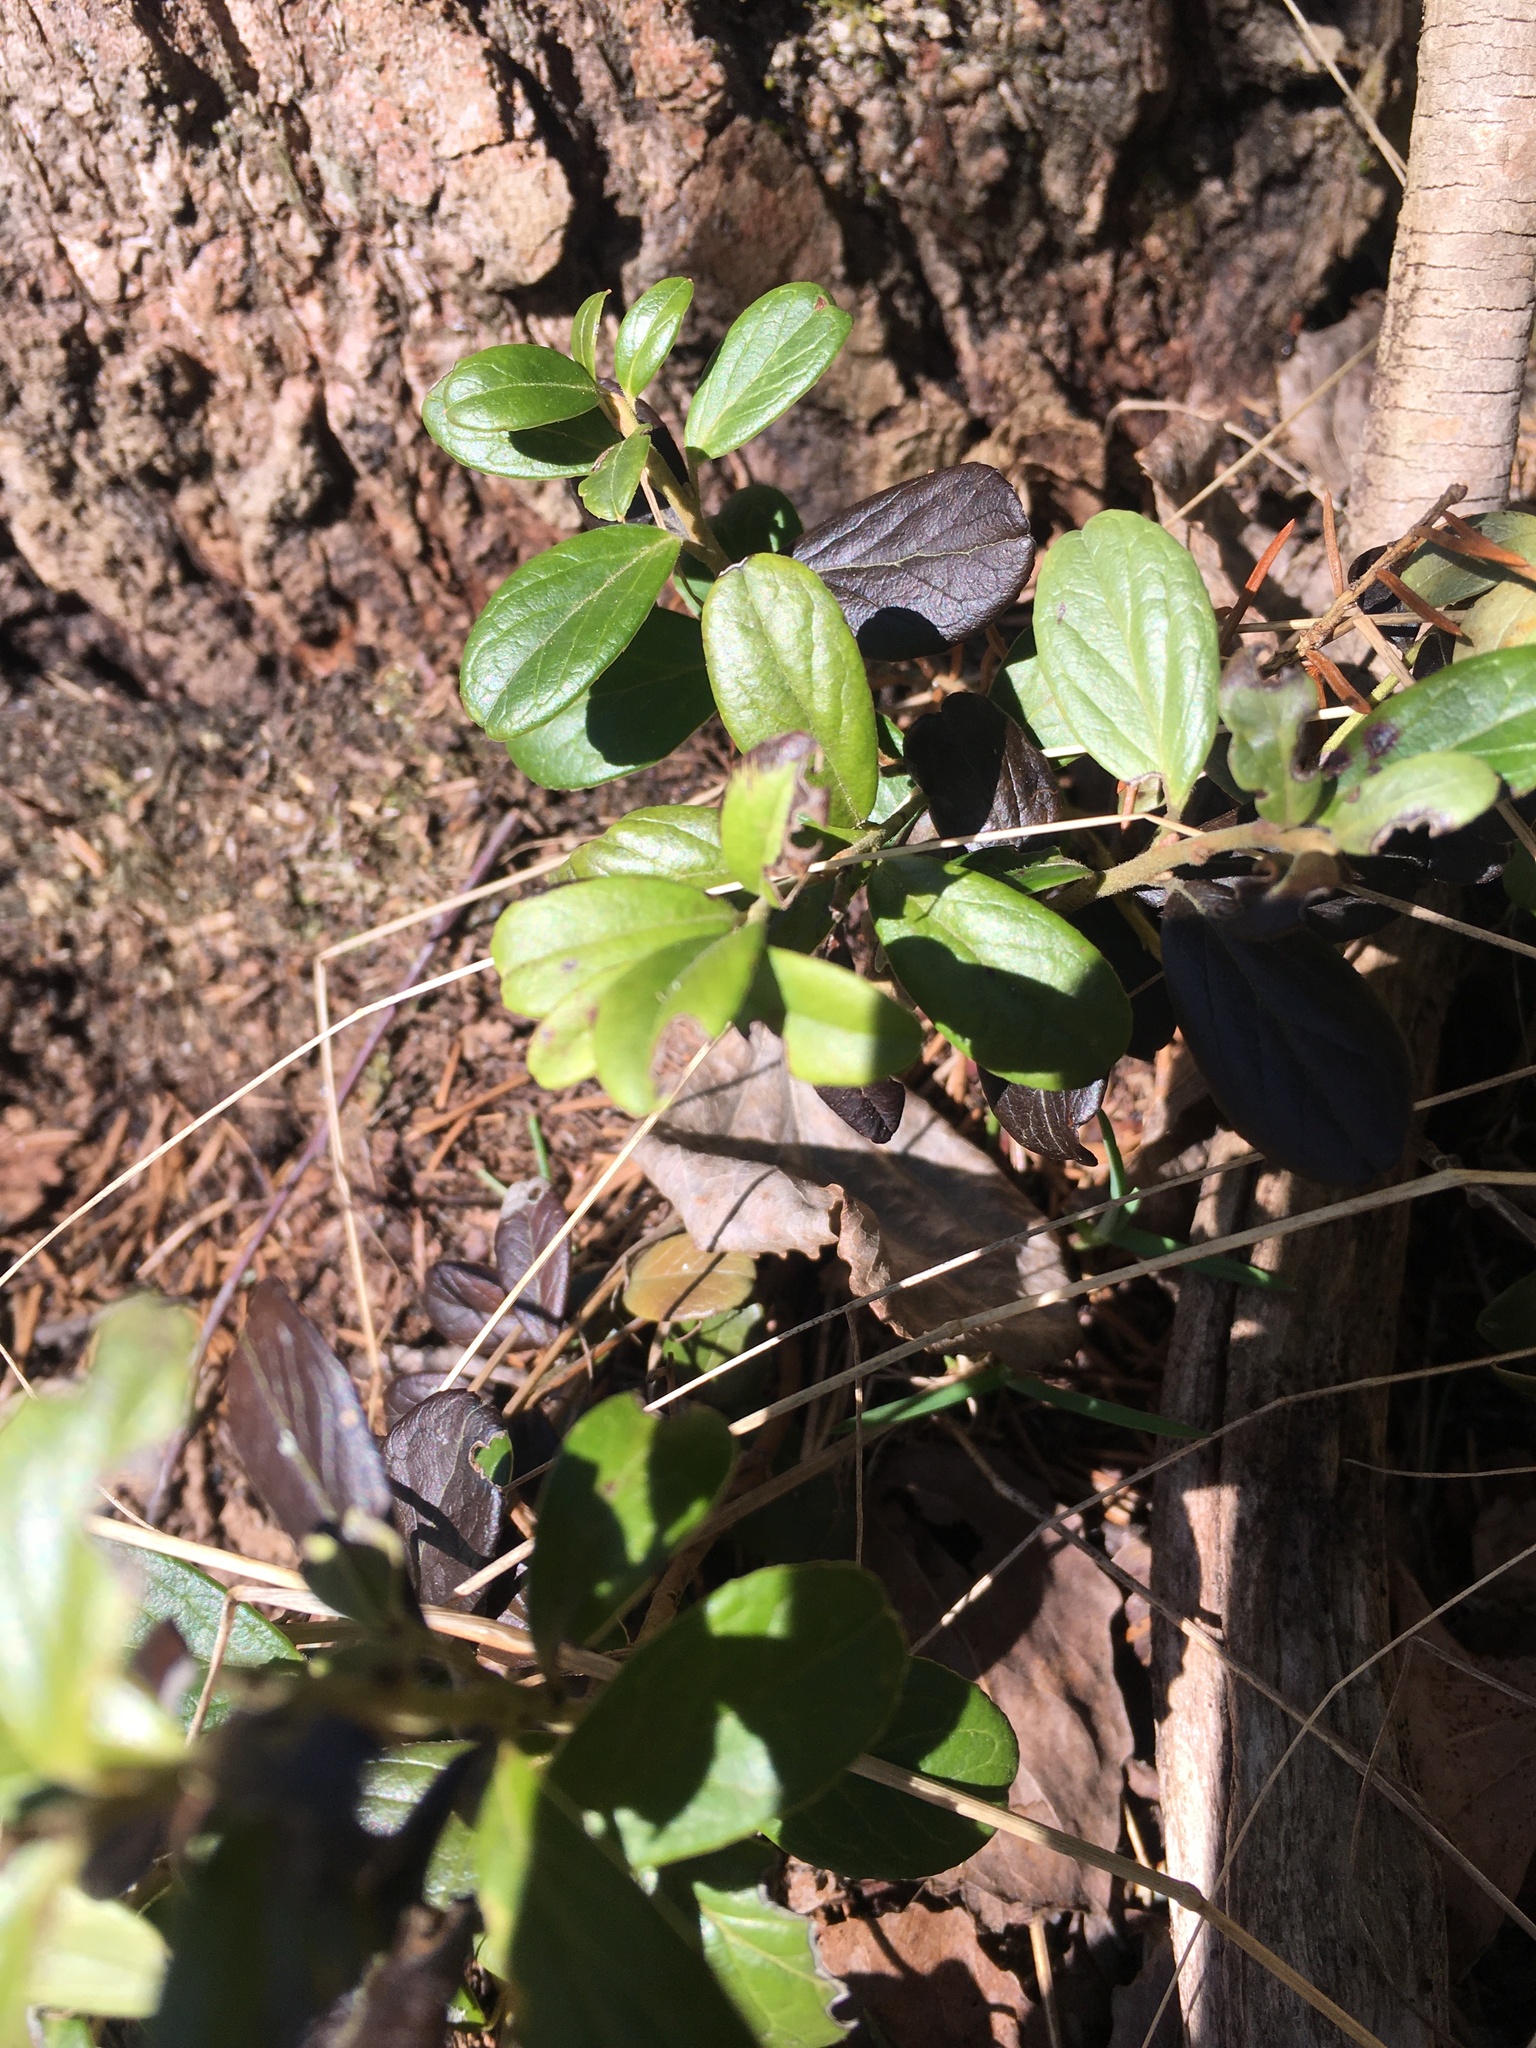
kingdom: Plantae
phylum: Tracheophyta
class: Magnoliopsida
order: Ericales
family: Ericaceae
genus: Vaccinium
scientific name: Vaccinium vitis-idaea
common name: Cowberry
